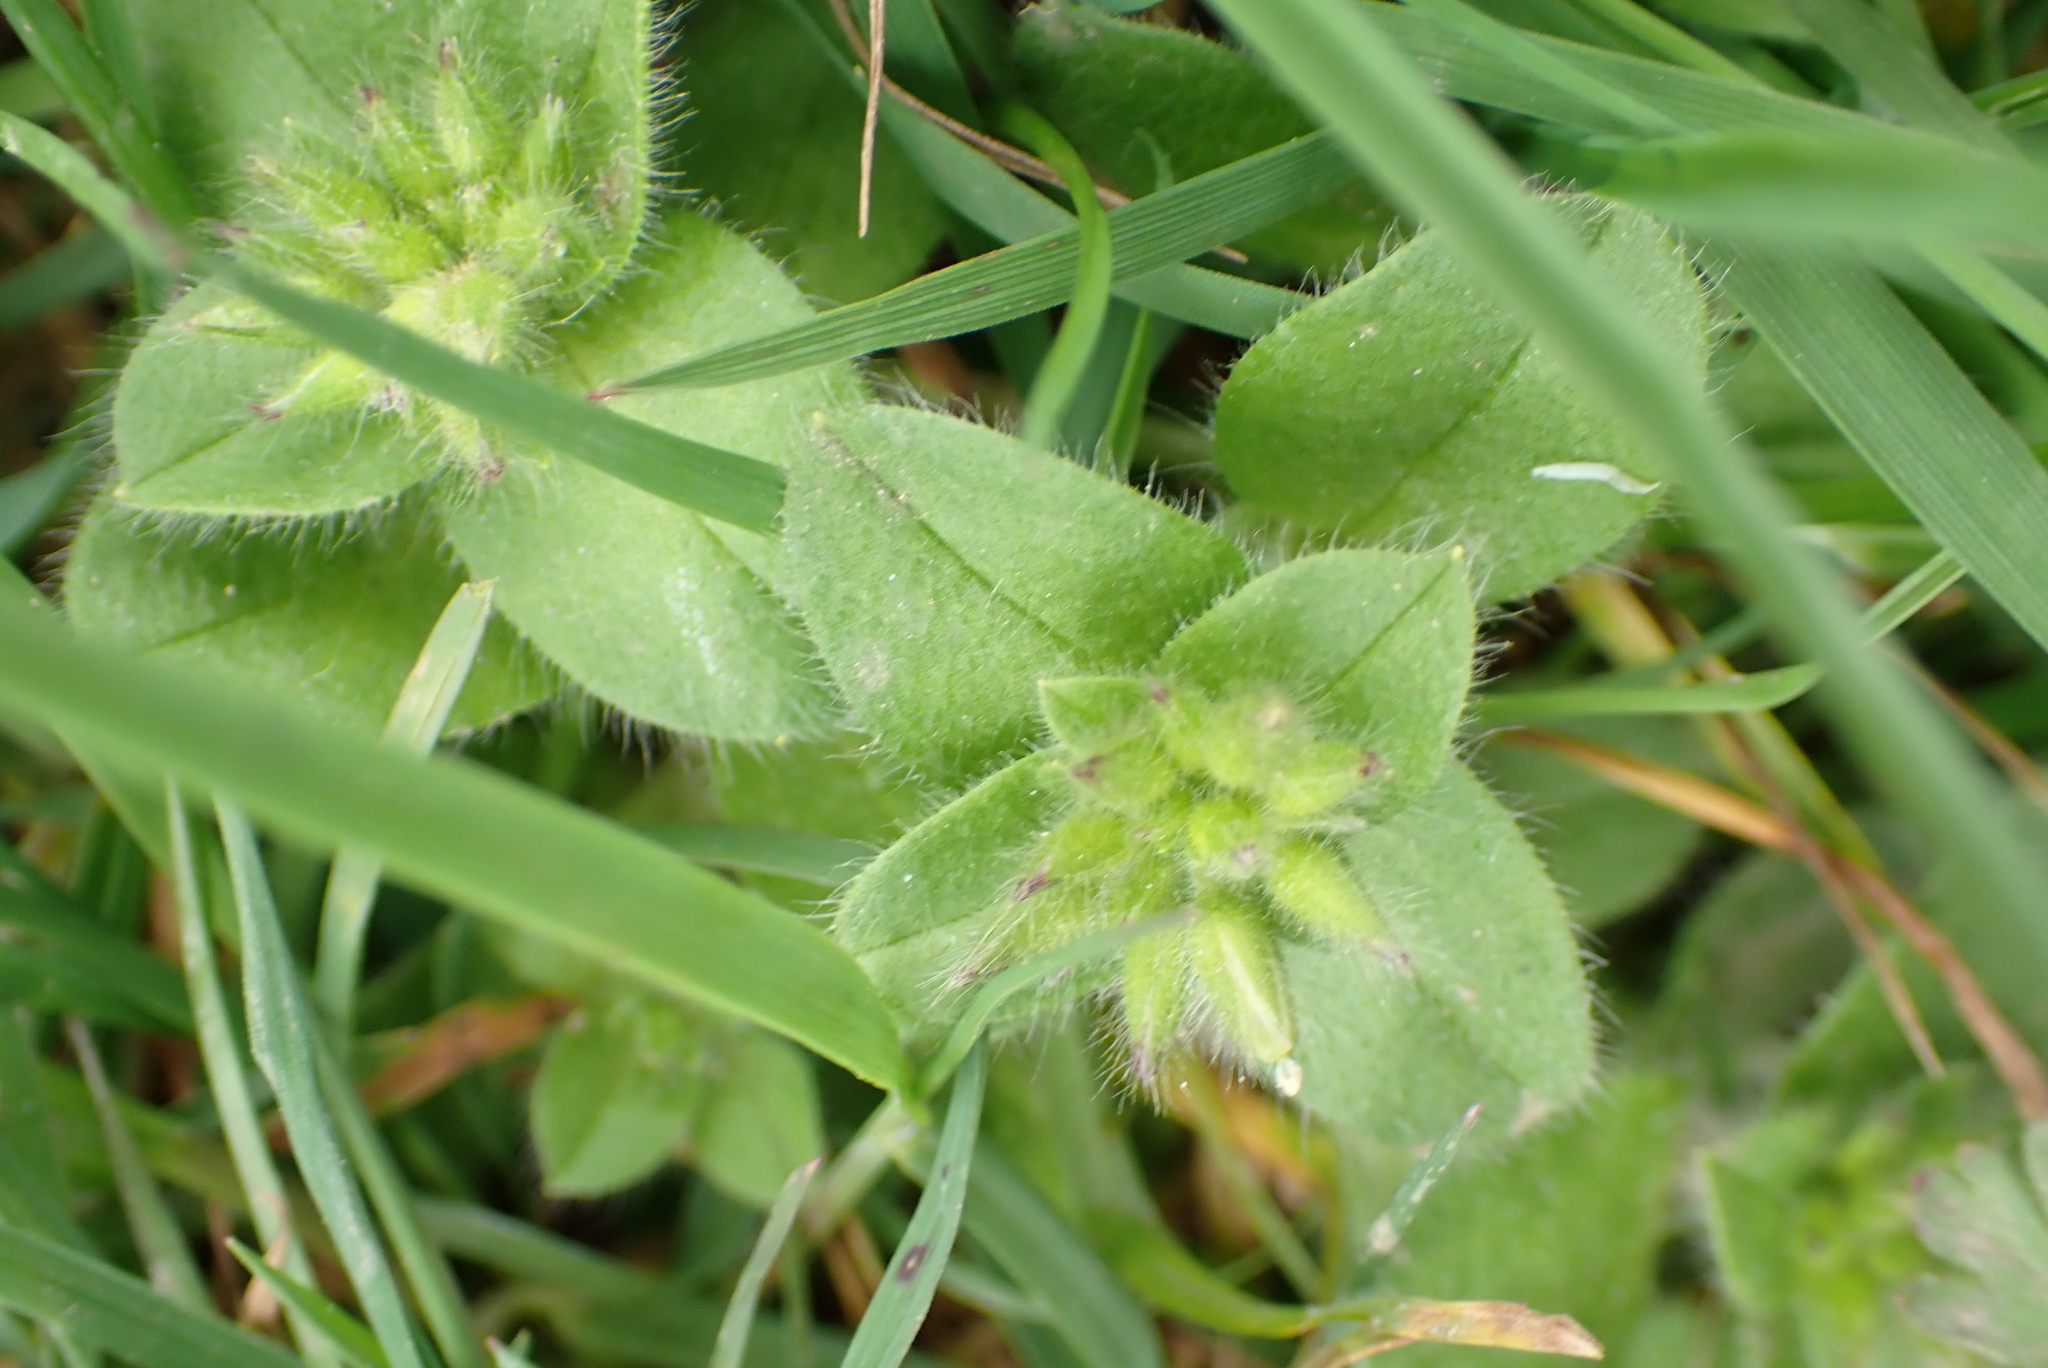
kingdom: Plantae
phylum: Tracheophyta
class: Magnoliopsida
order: Caryophyllales
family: Caryophyllaceae
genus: Cerastium
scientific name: Cerastium glomeratum
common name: Sticky chickweed
